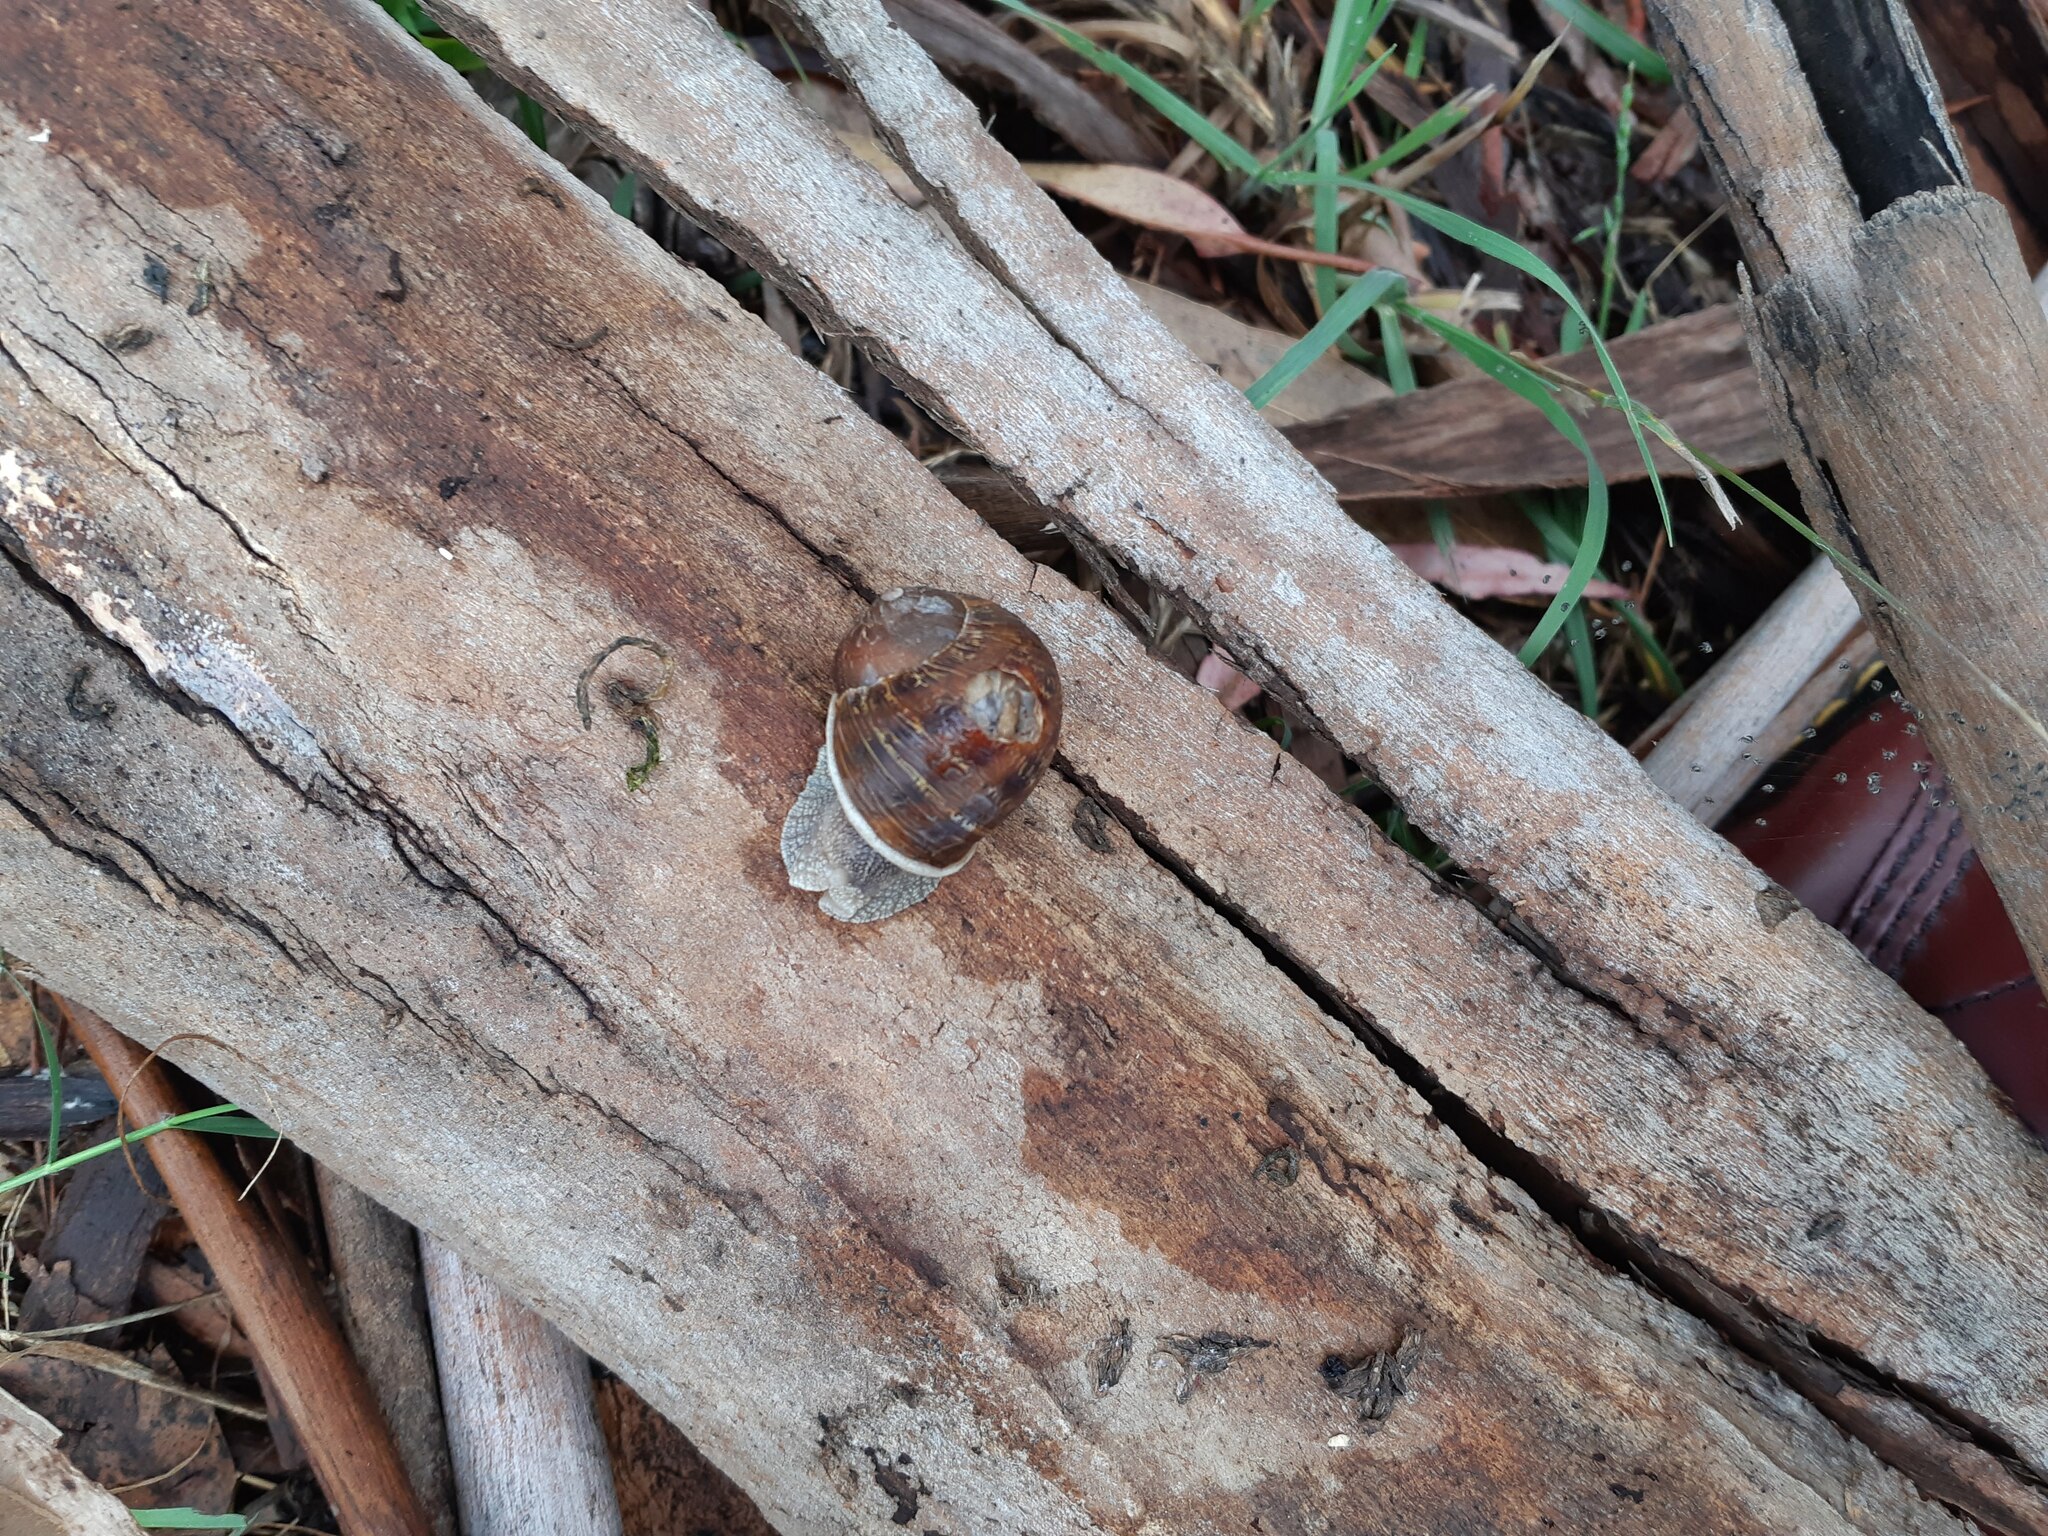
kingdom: Animalia
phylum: Mollusca
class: Gastropoda
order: Stylommatophora
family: Helicidae
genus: Cornu
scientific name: Cornu aspersum
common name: Brown garden snail
